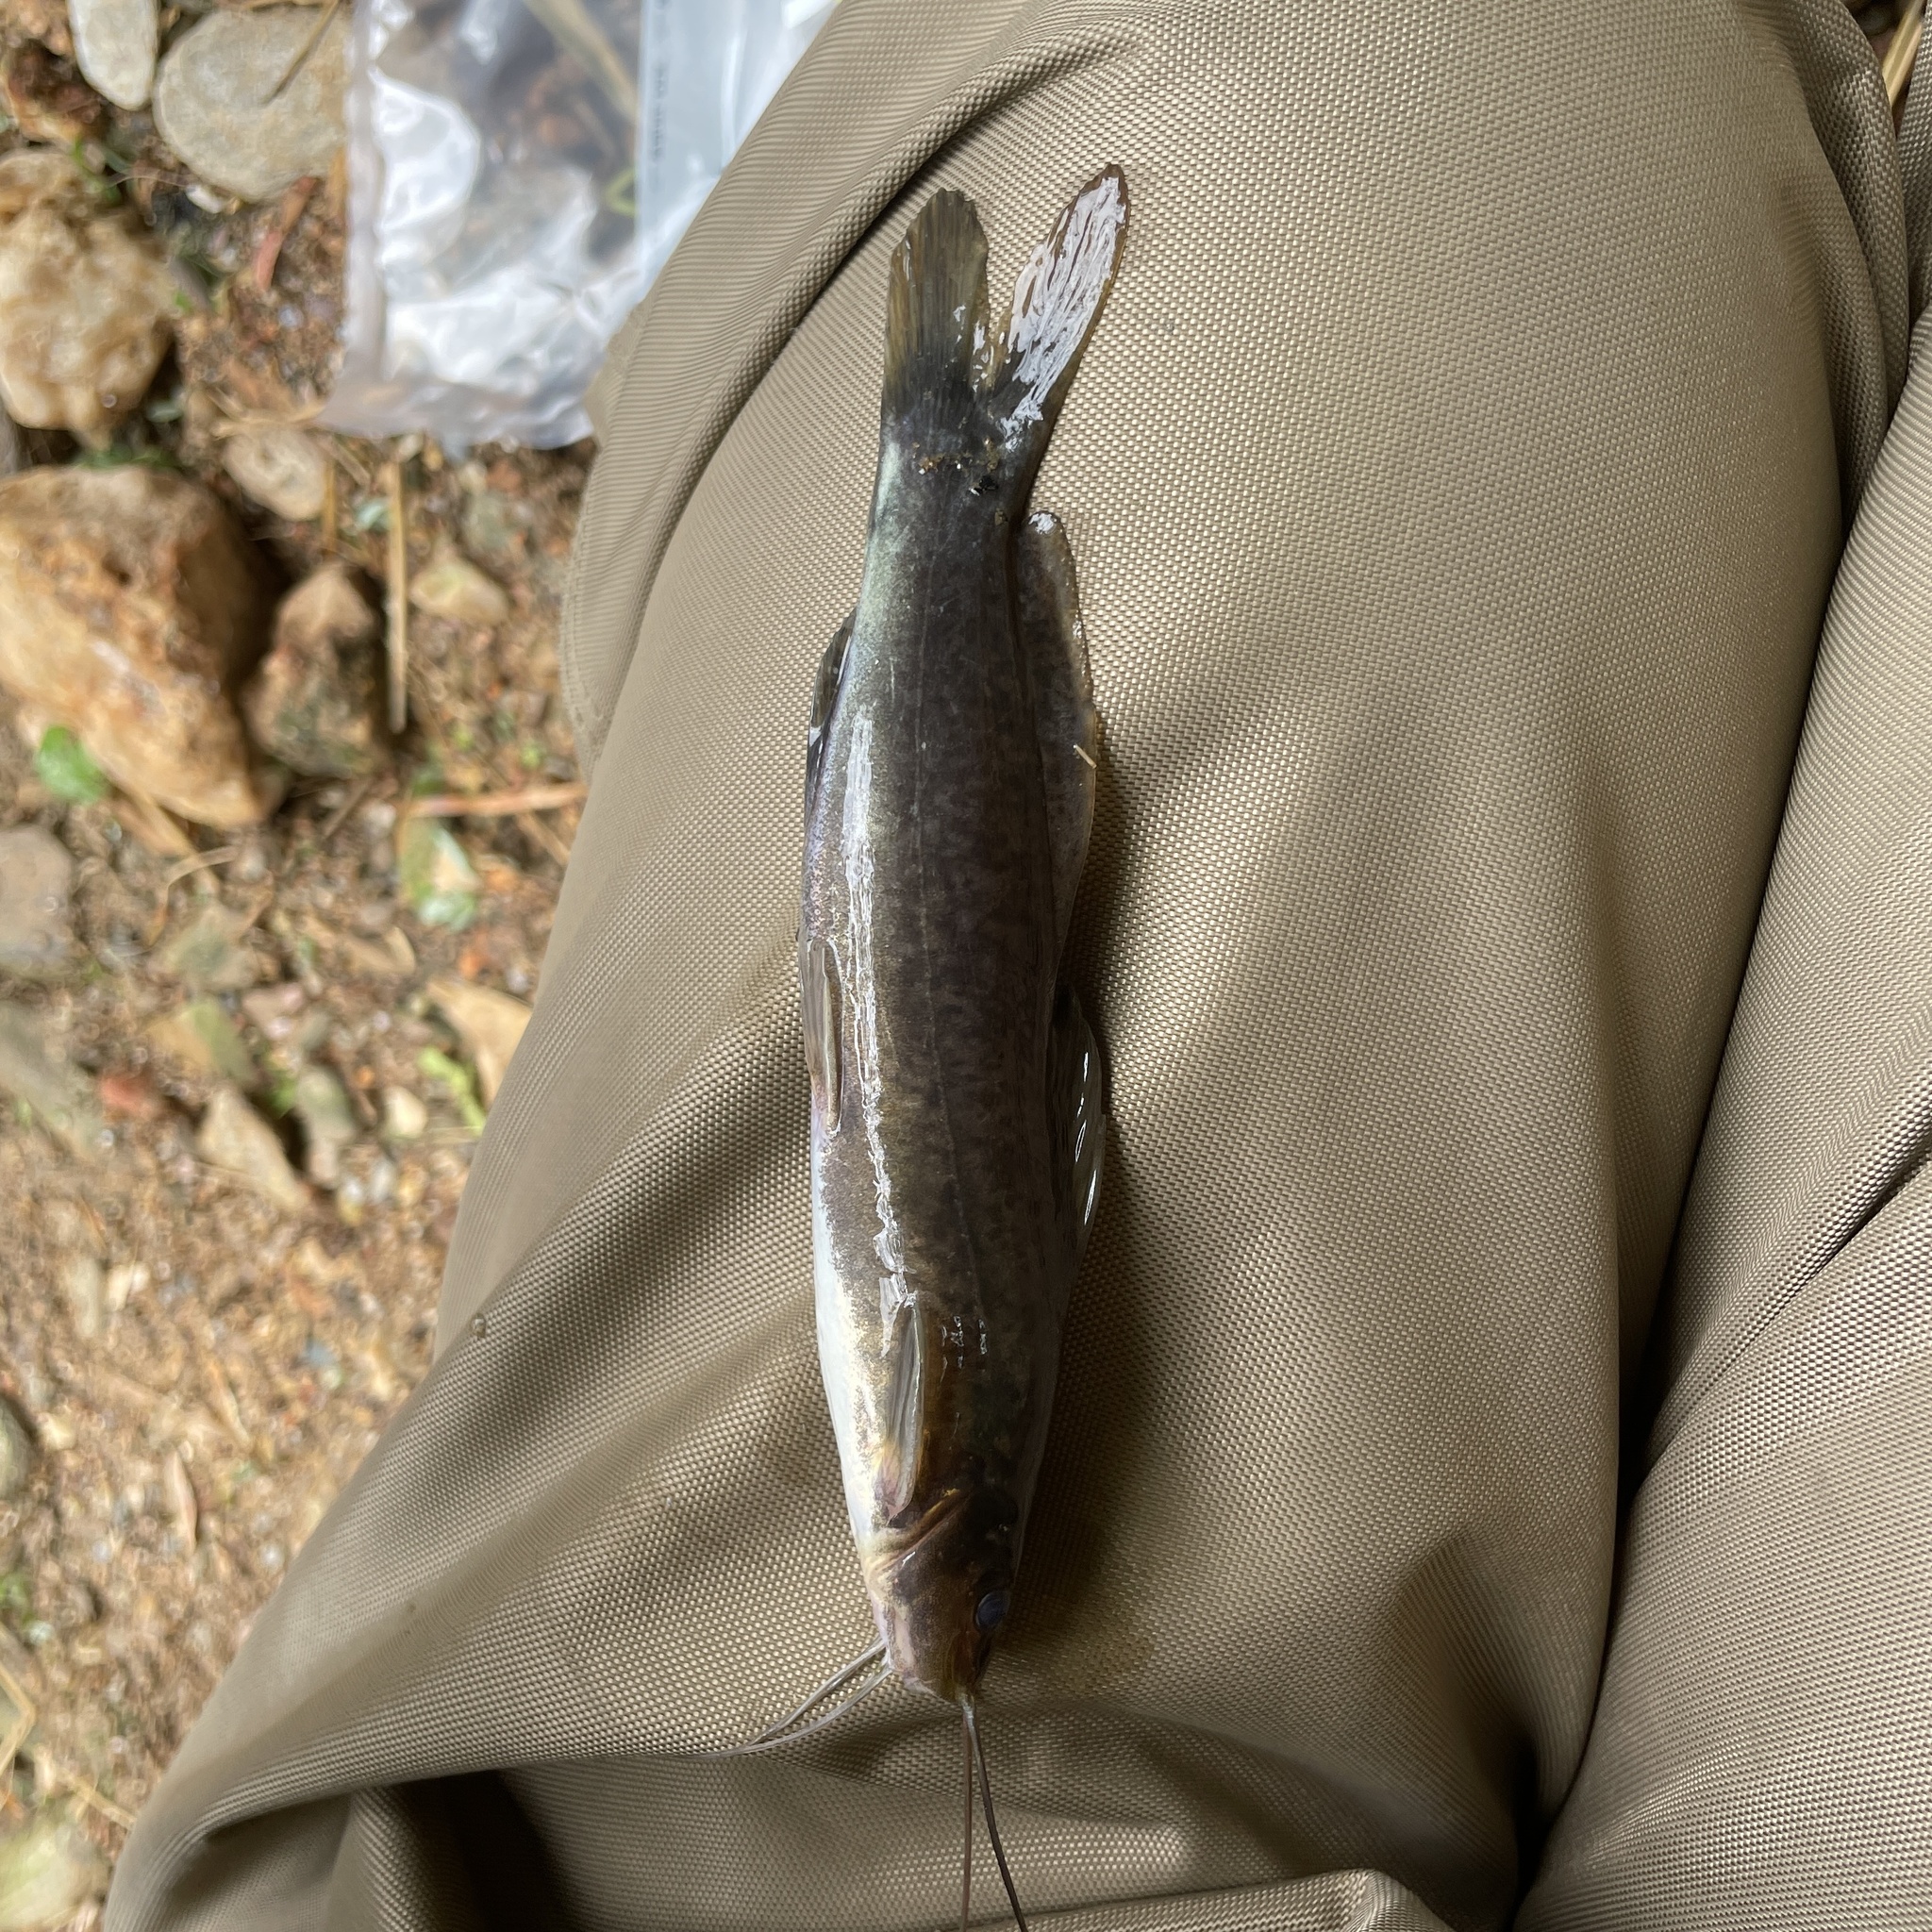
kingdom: Animalia
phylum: Chordata
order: Siluriformes
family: Heptapteridae
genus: Rhamdia
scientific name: Rhamdia quelen
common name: Catfish
